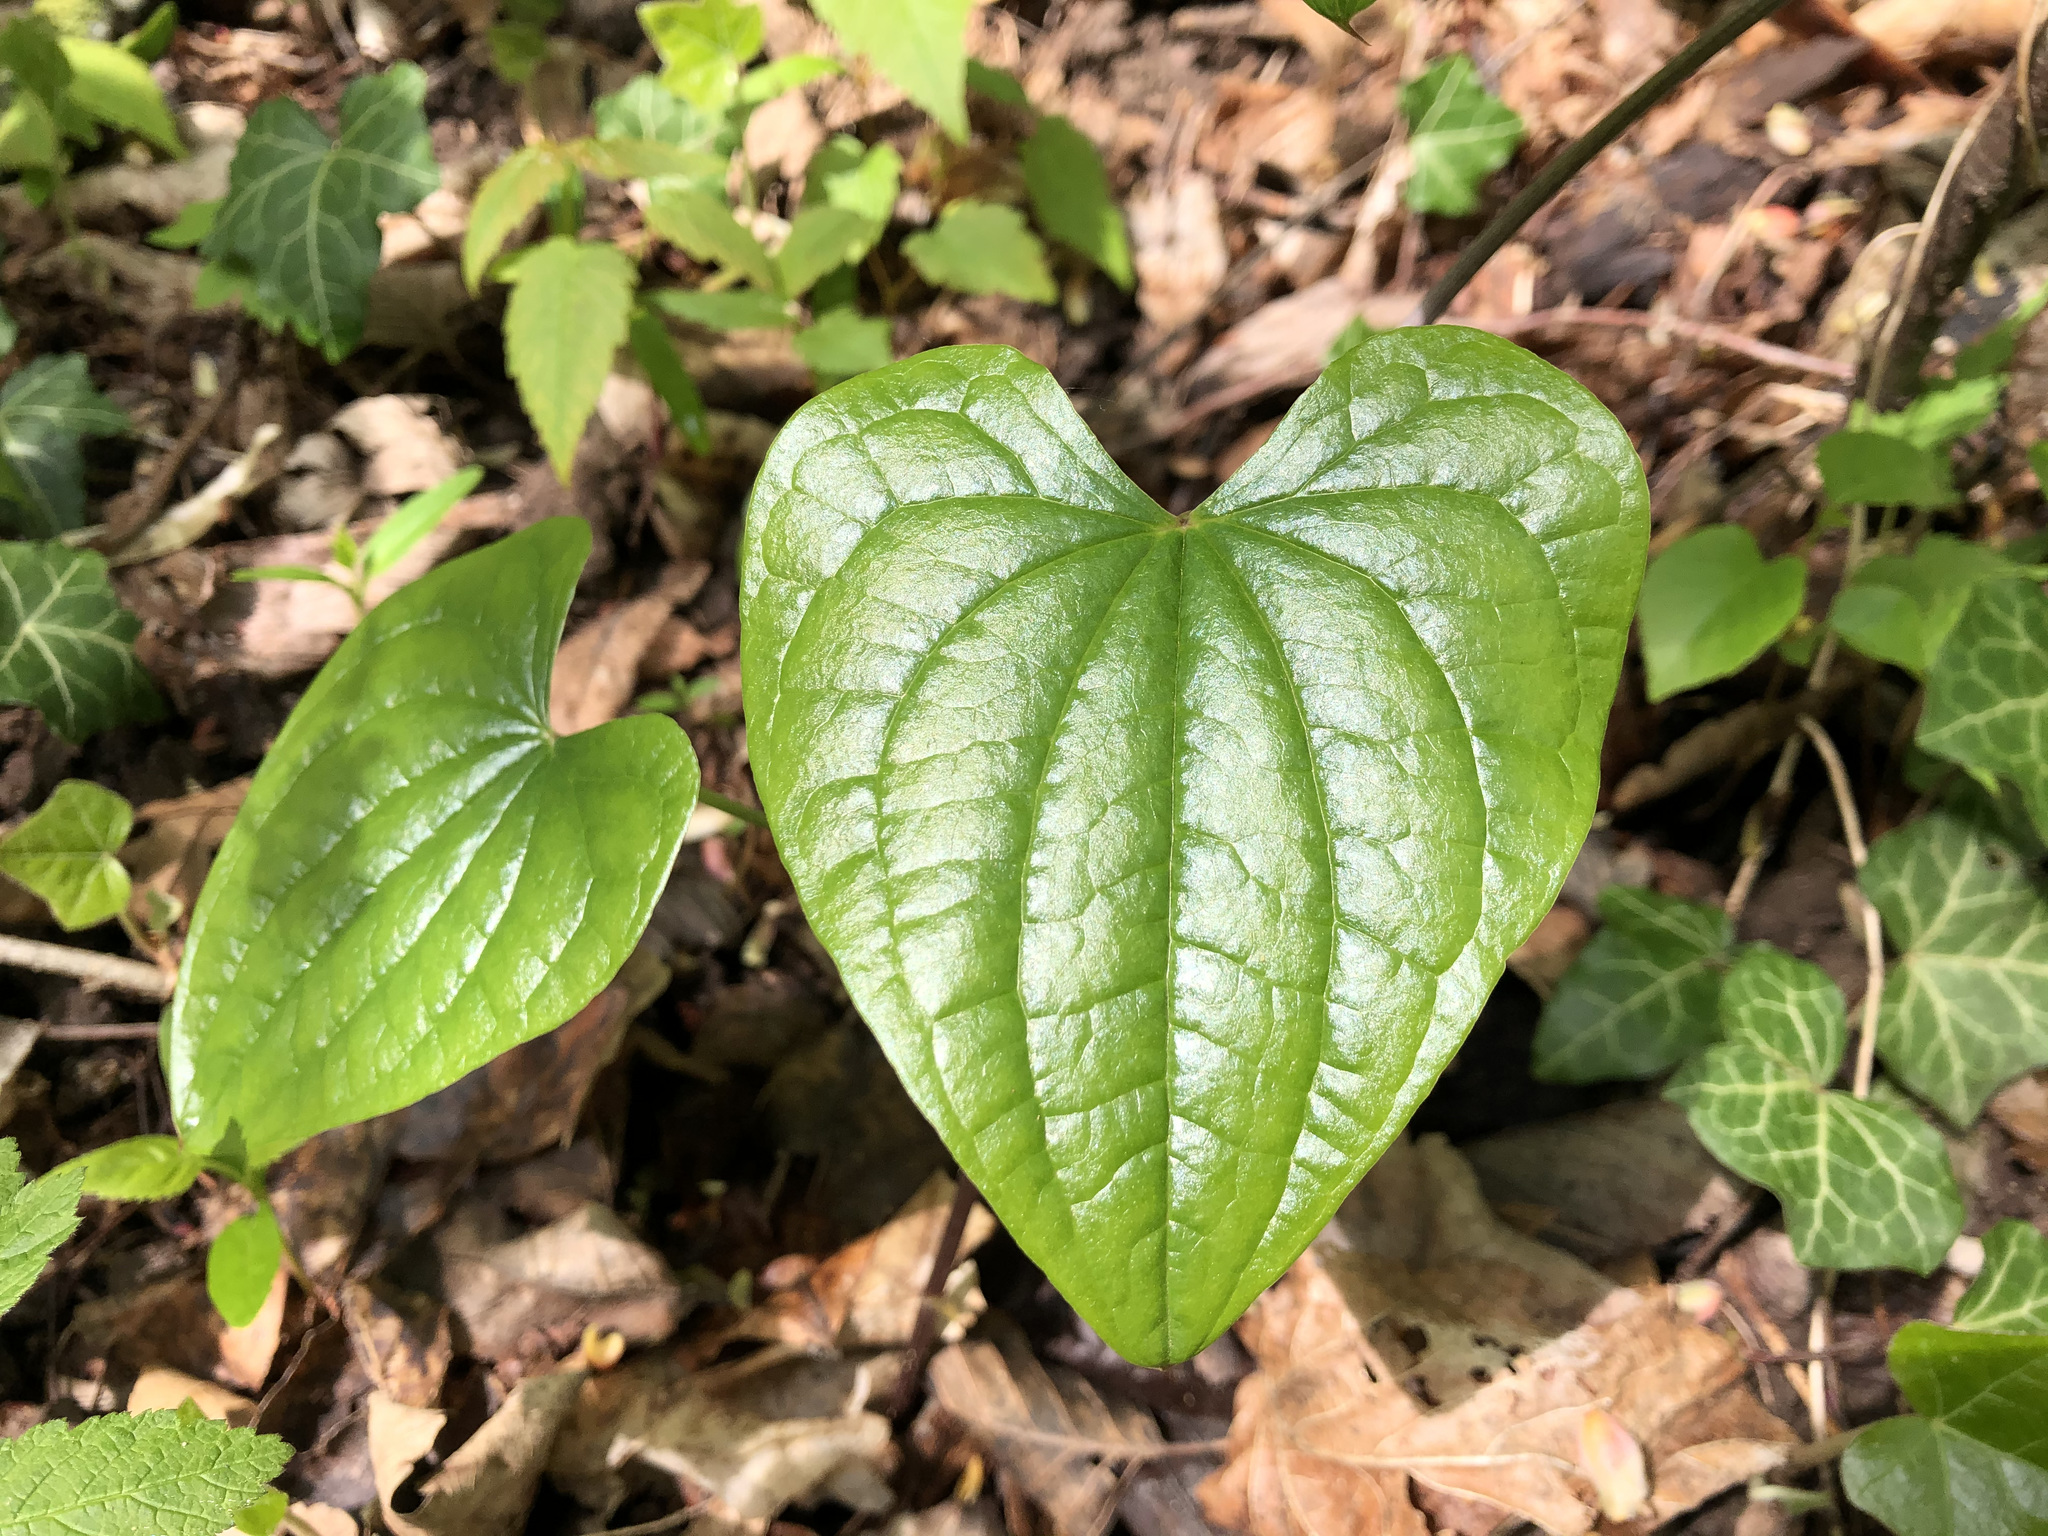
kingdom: Plantae
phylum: Tracheophyta
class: Liliopsida
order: Dioscoreales
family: Dioscoreaceae
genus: Dioscorea
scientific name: Dioscorea communis
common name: Black-bindweed
